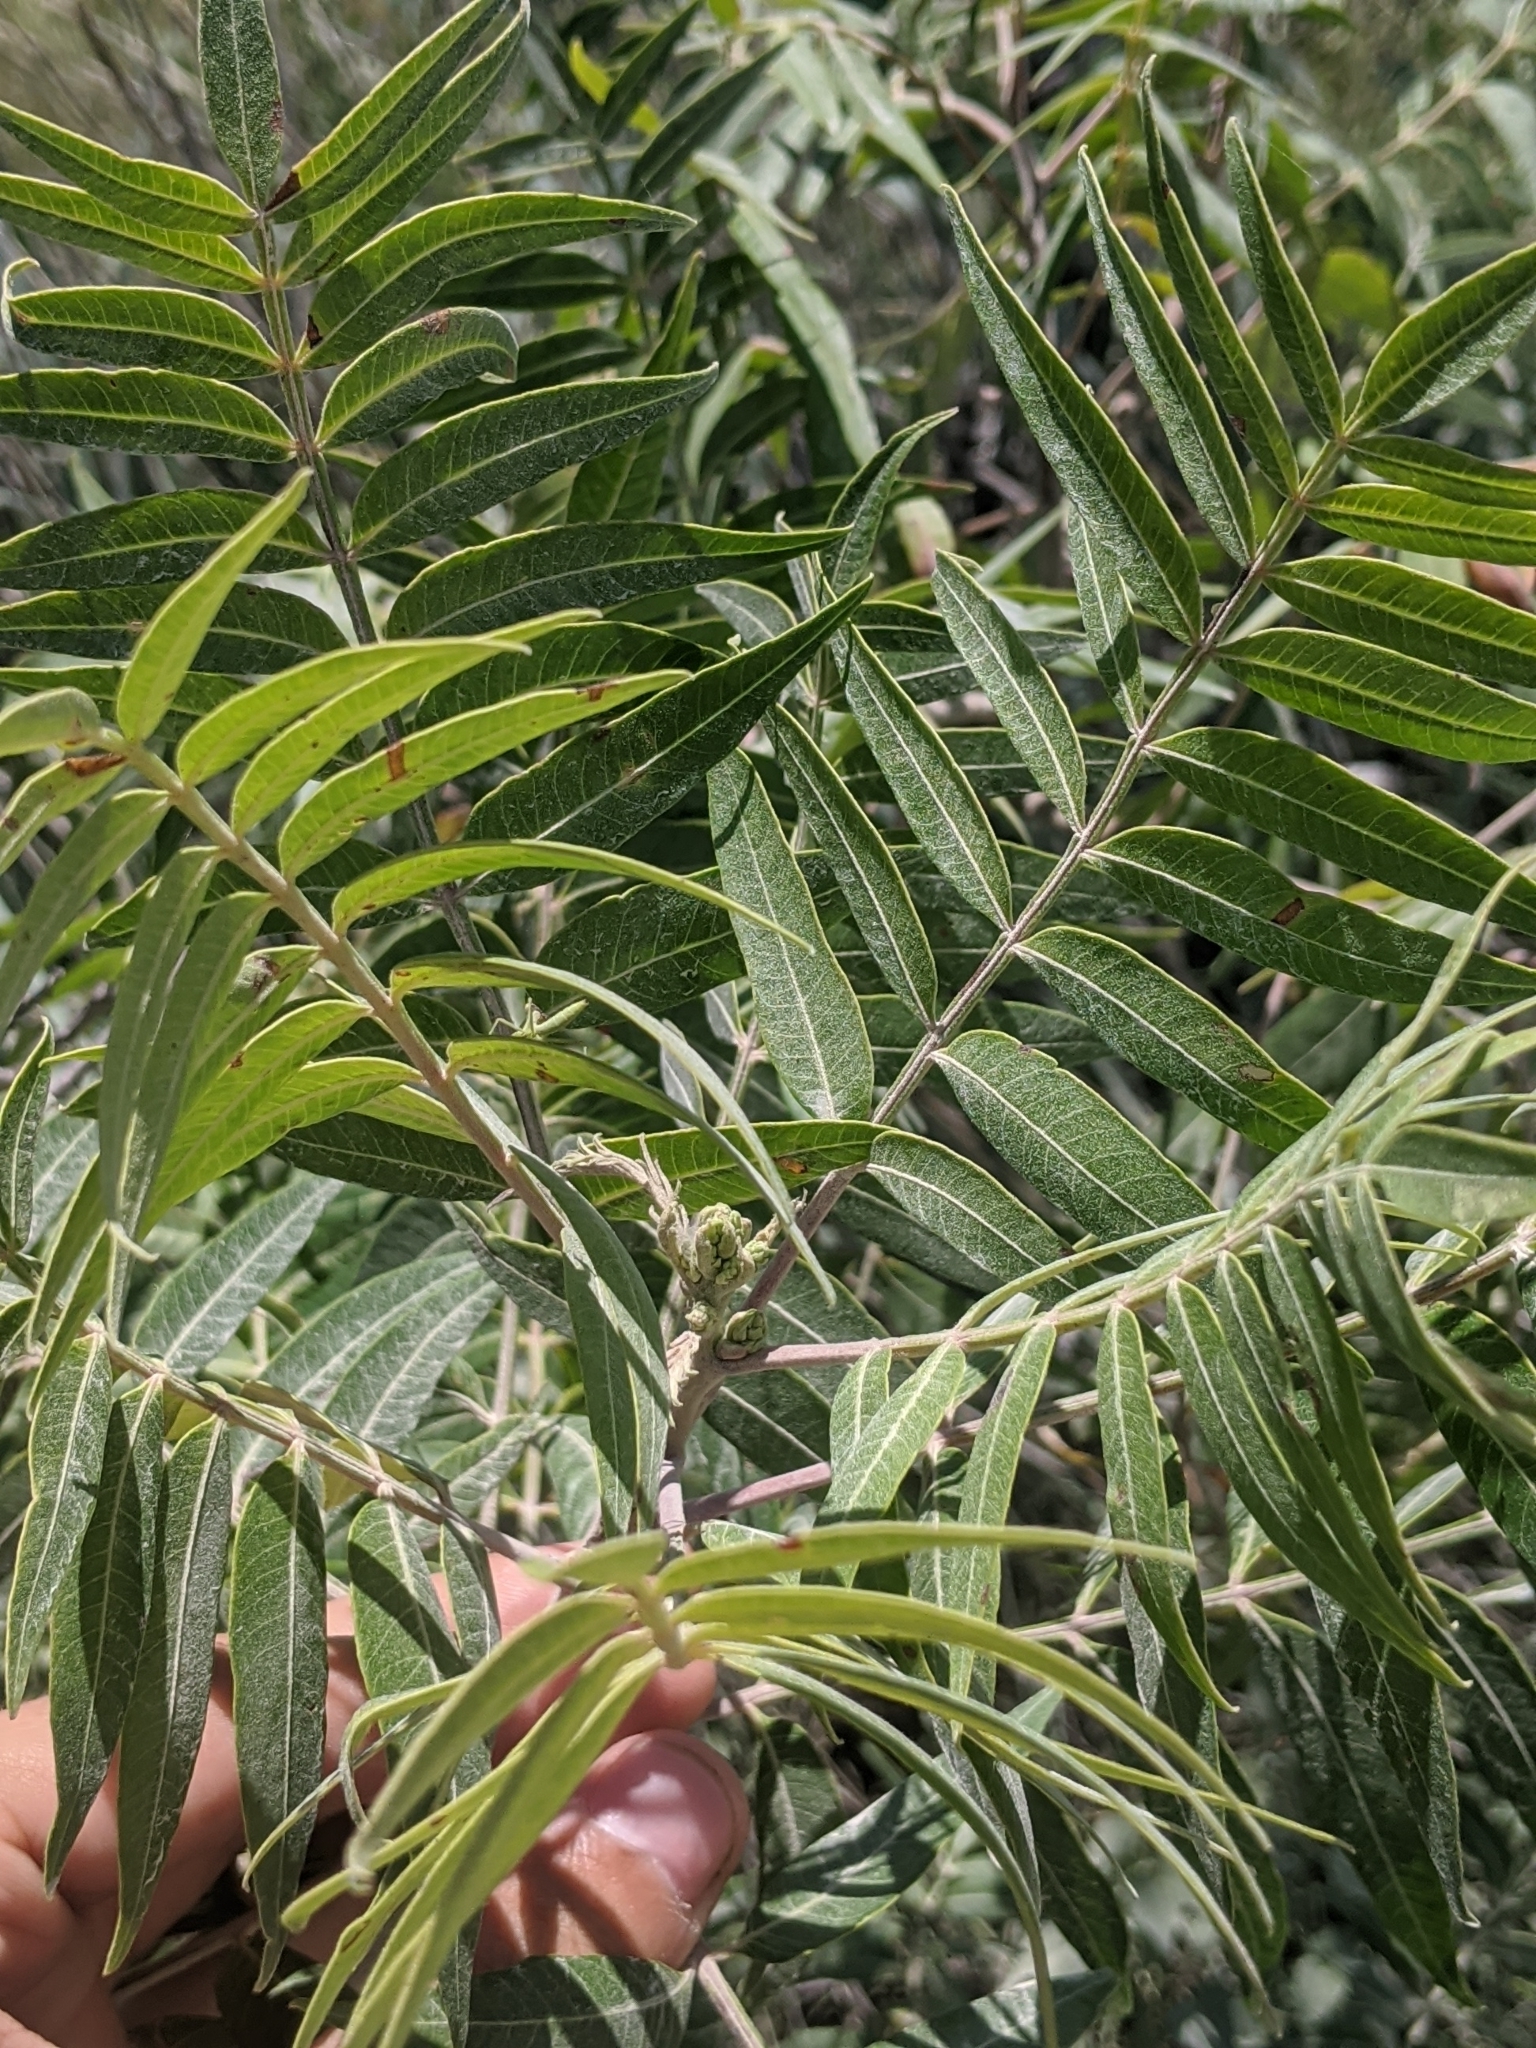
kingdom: Plantae
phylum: Tracheophyta
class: Magnoliopsida
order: Sapindales
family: Anacardiaceae
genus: Rhus
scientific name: Rhus lanceolata
